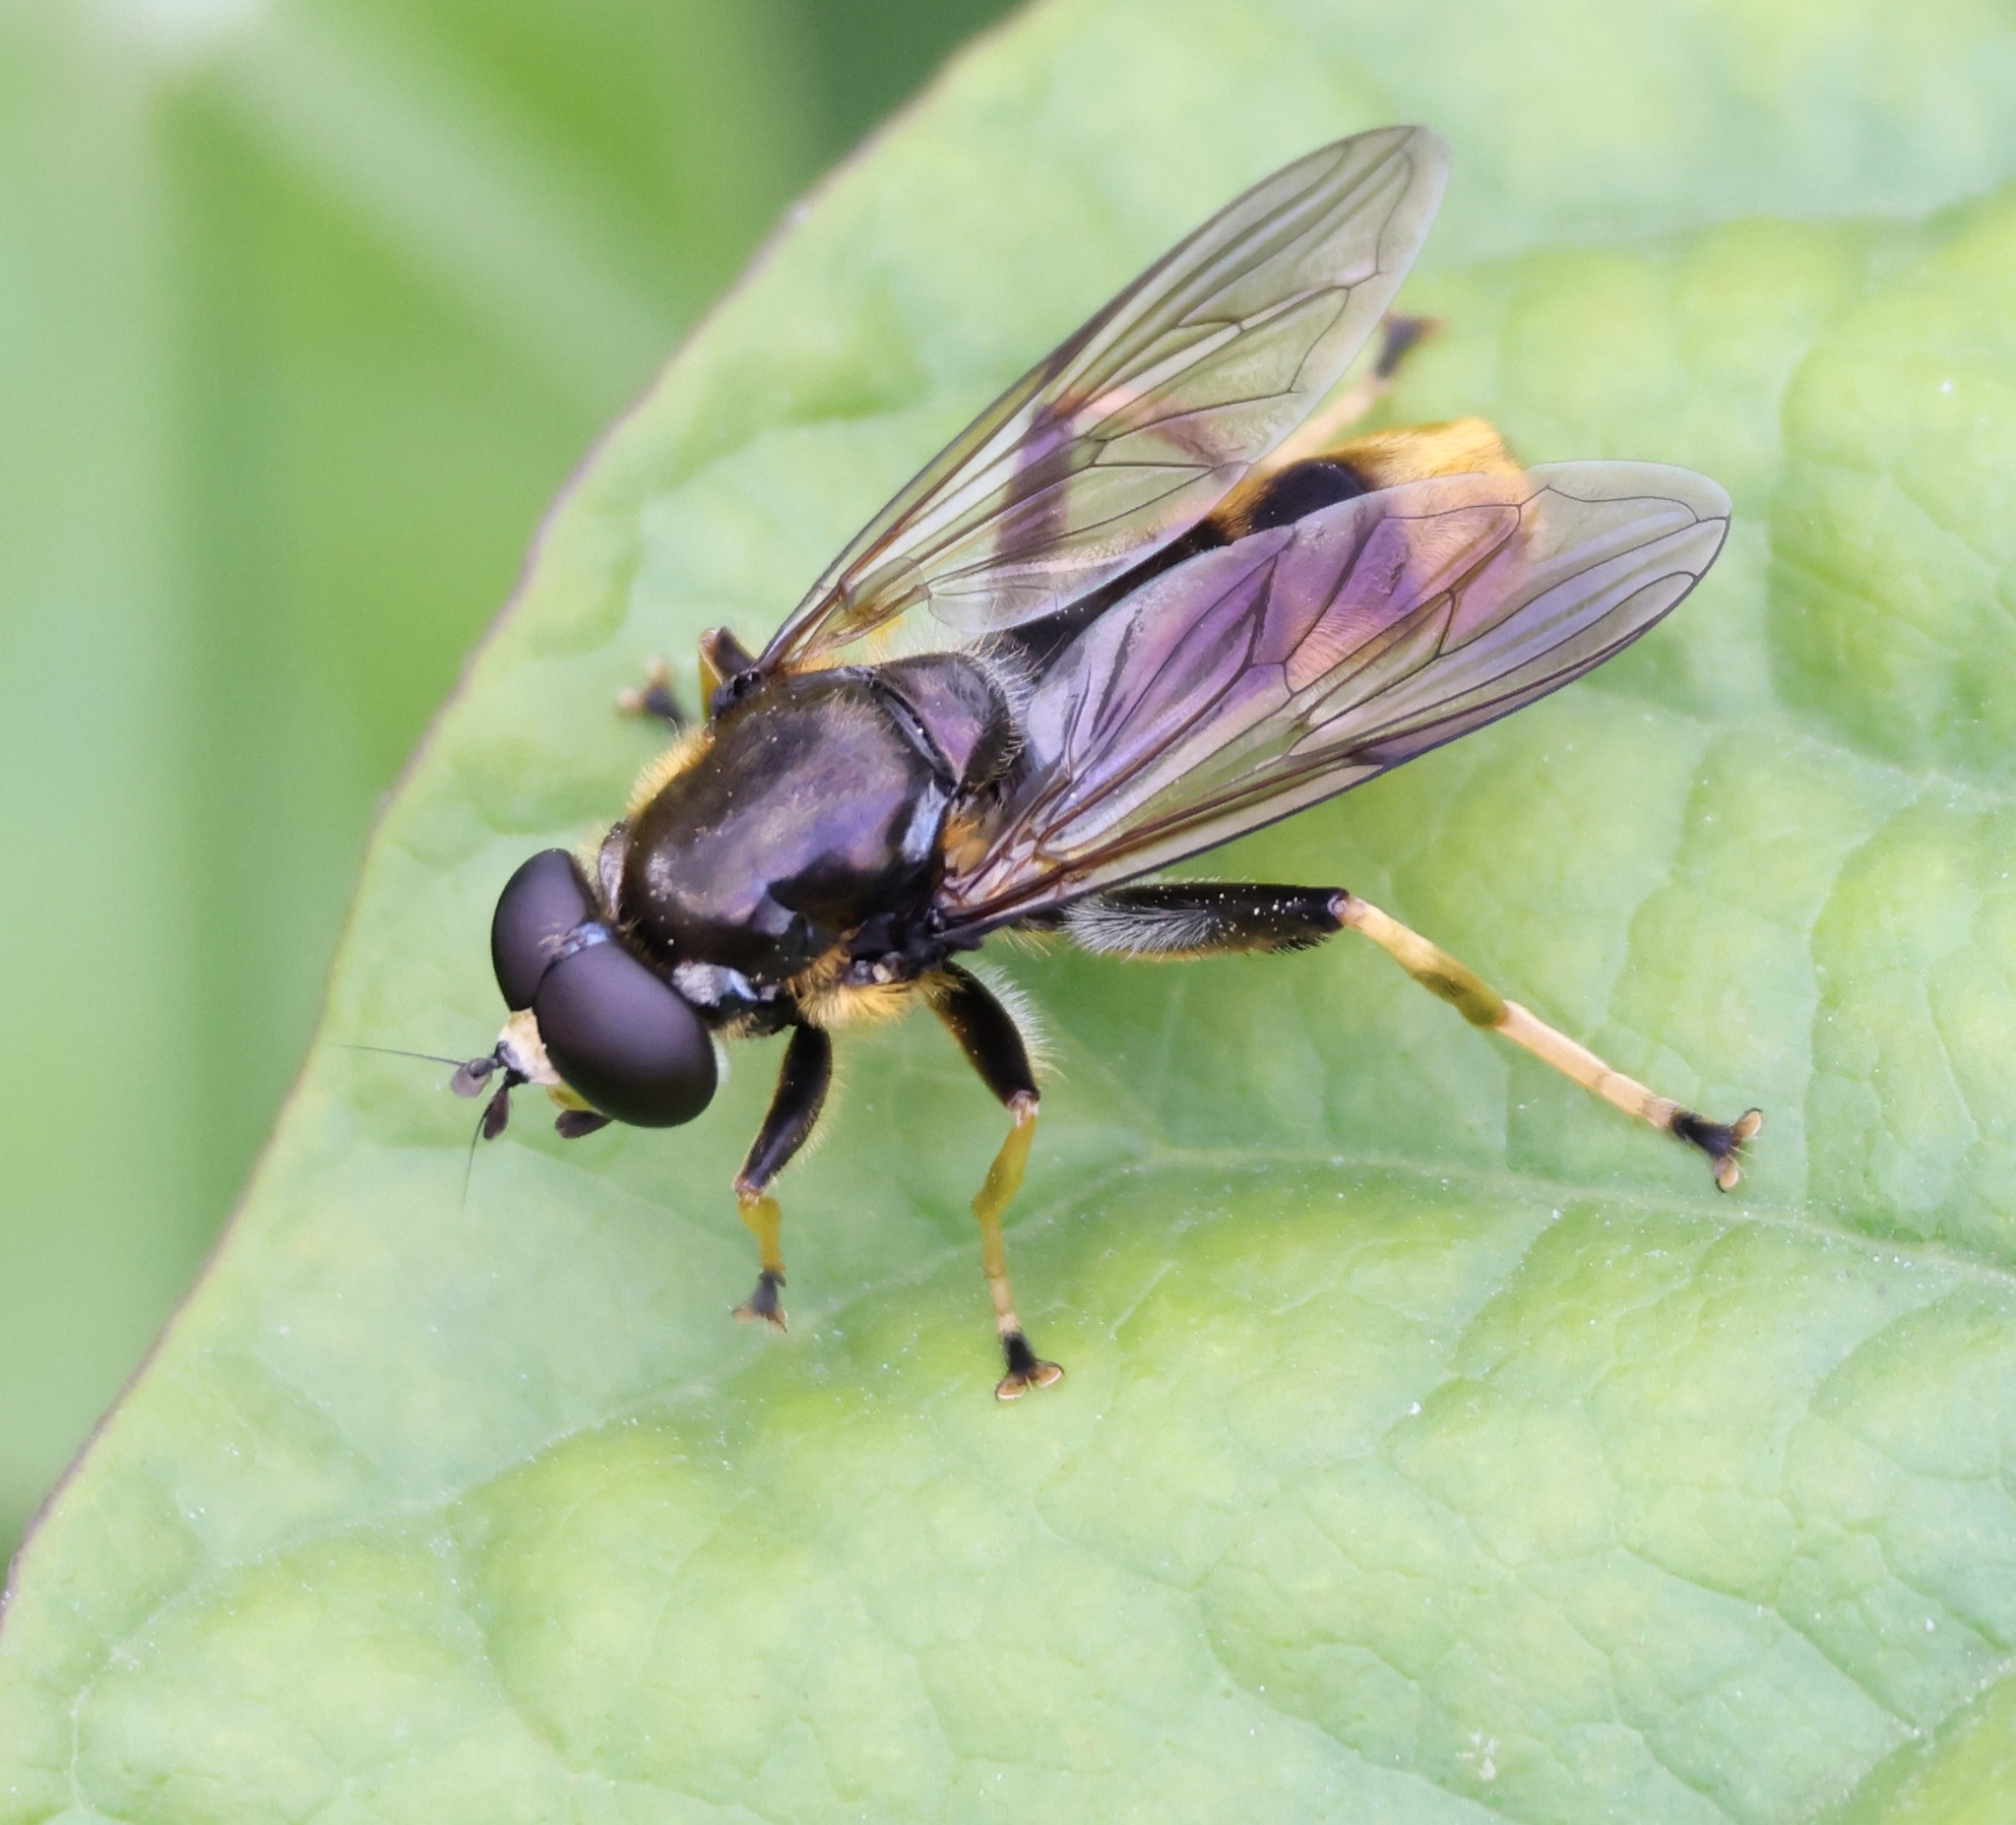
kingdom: Animalia
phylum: Arthropoda
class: Insecta
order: Diptera
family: Syrphidae
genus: Xylota
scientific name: Xylota sylvarum
